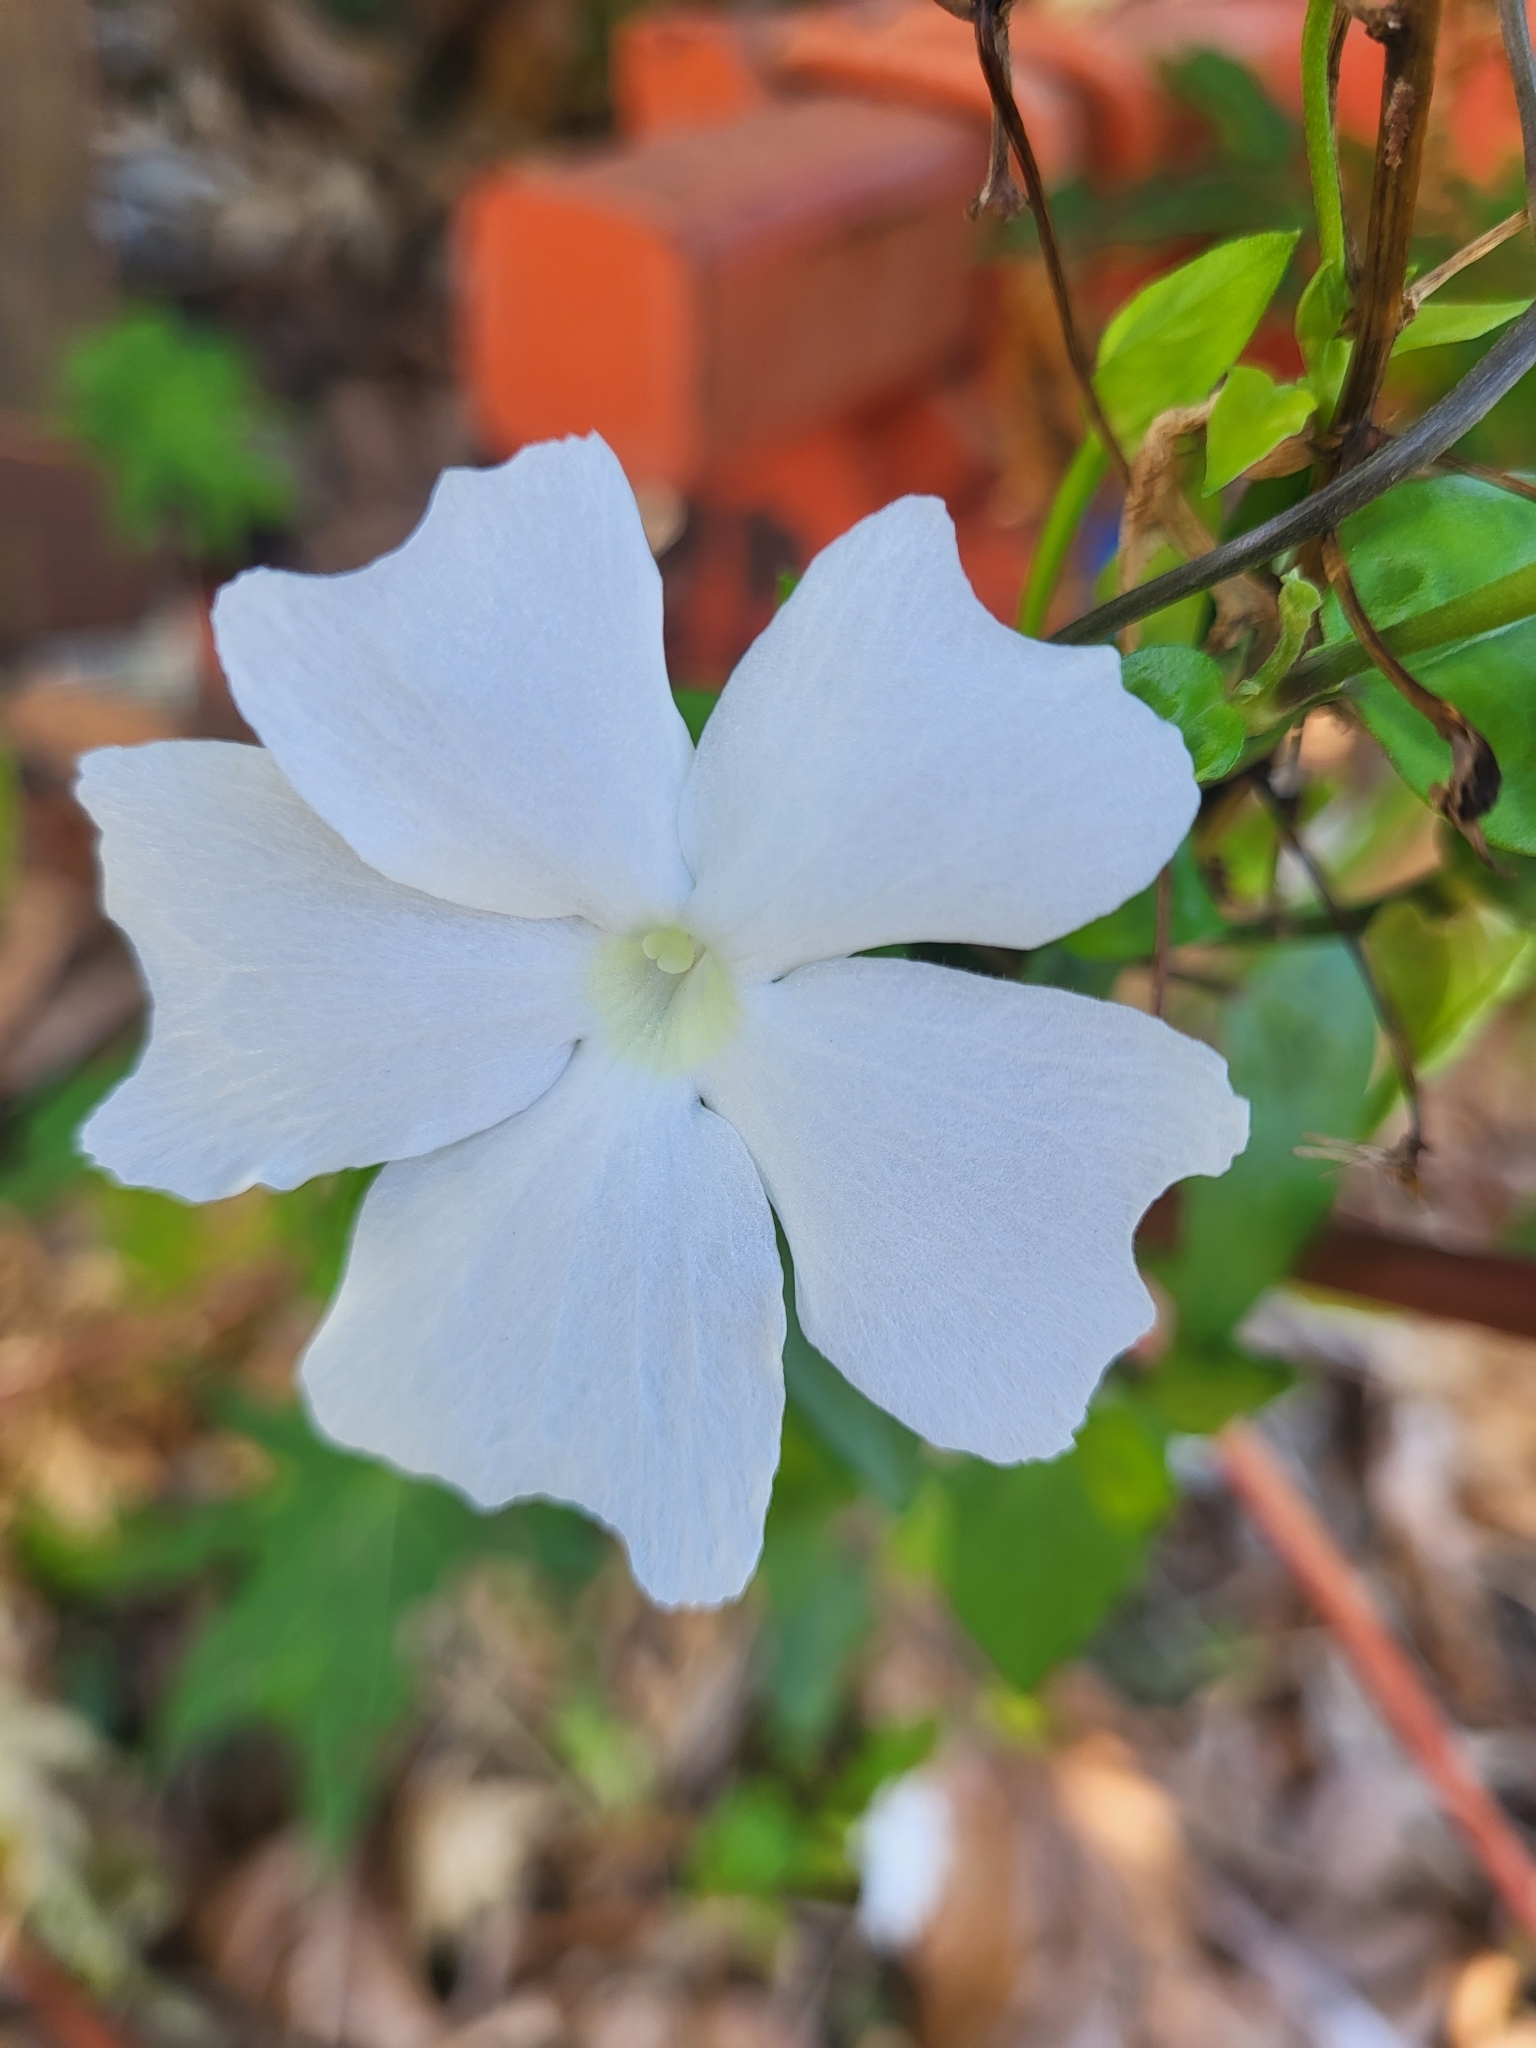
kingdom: Plantae
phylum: Tracheophyta
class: Magnoliopsida
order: Lamiales
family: Acanthaceae
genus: Thunbergia
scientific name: Thunbergia laevis
